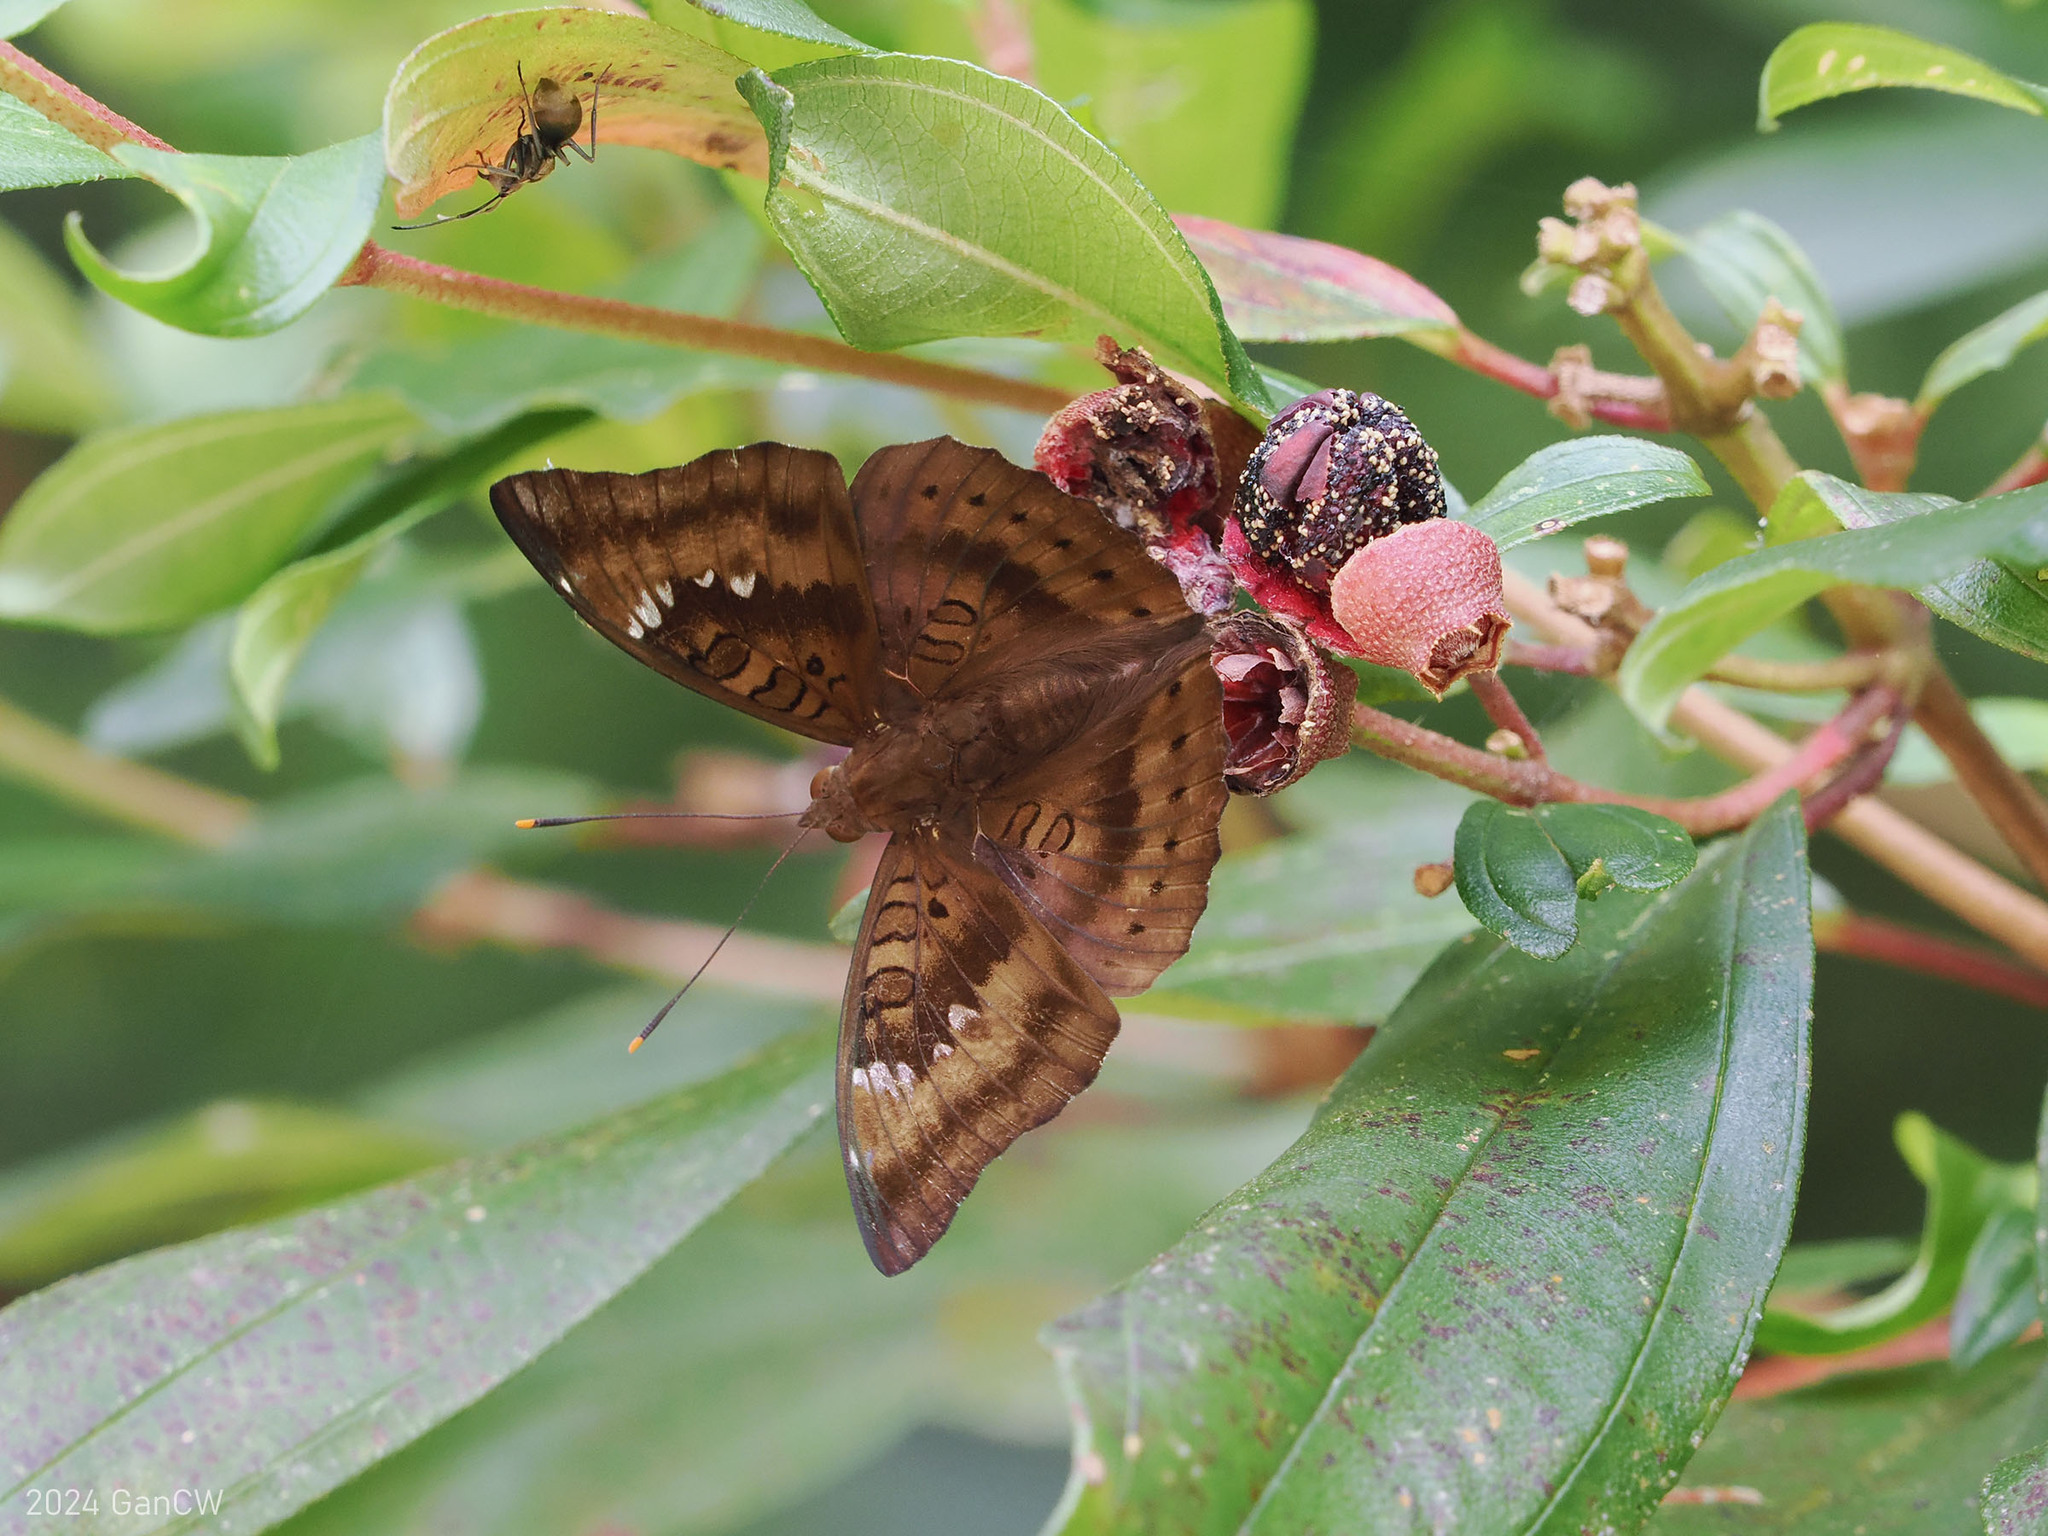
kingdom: Animalia
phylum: Arthropoda
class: Insecta
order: Lepidoptera
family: Nymphalidae
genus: Euthalia
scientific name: Euthalia aconthea
